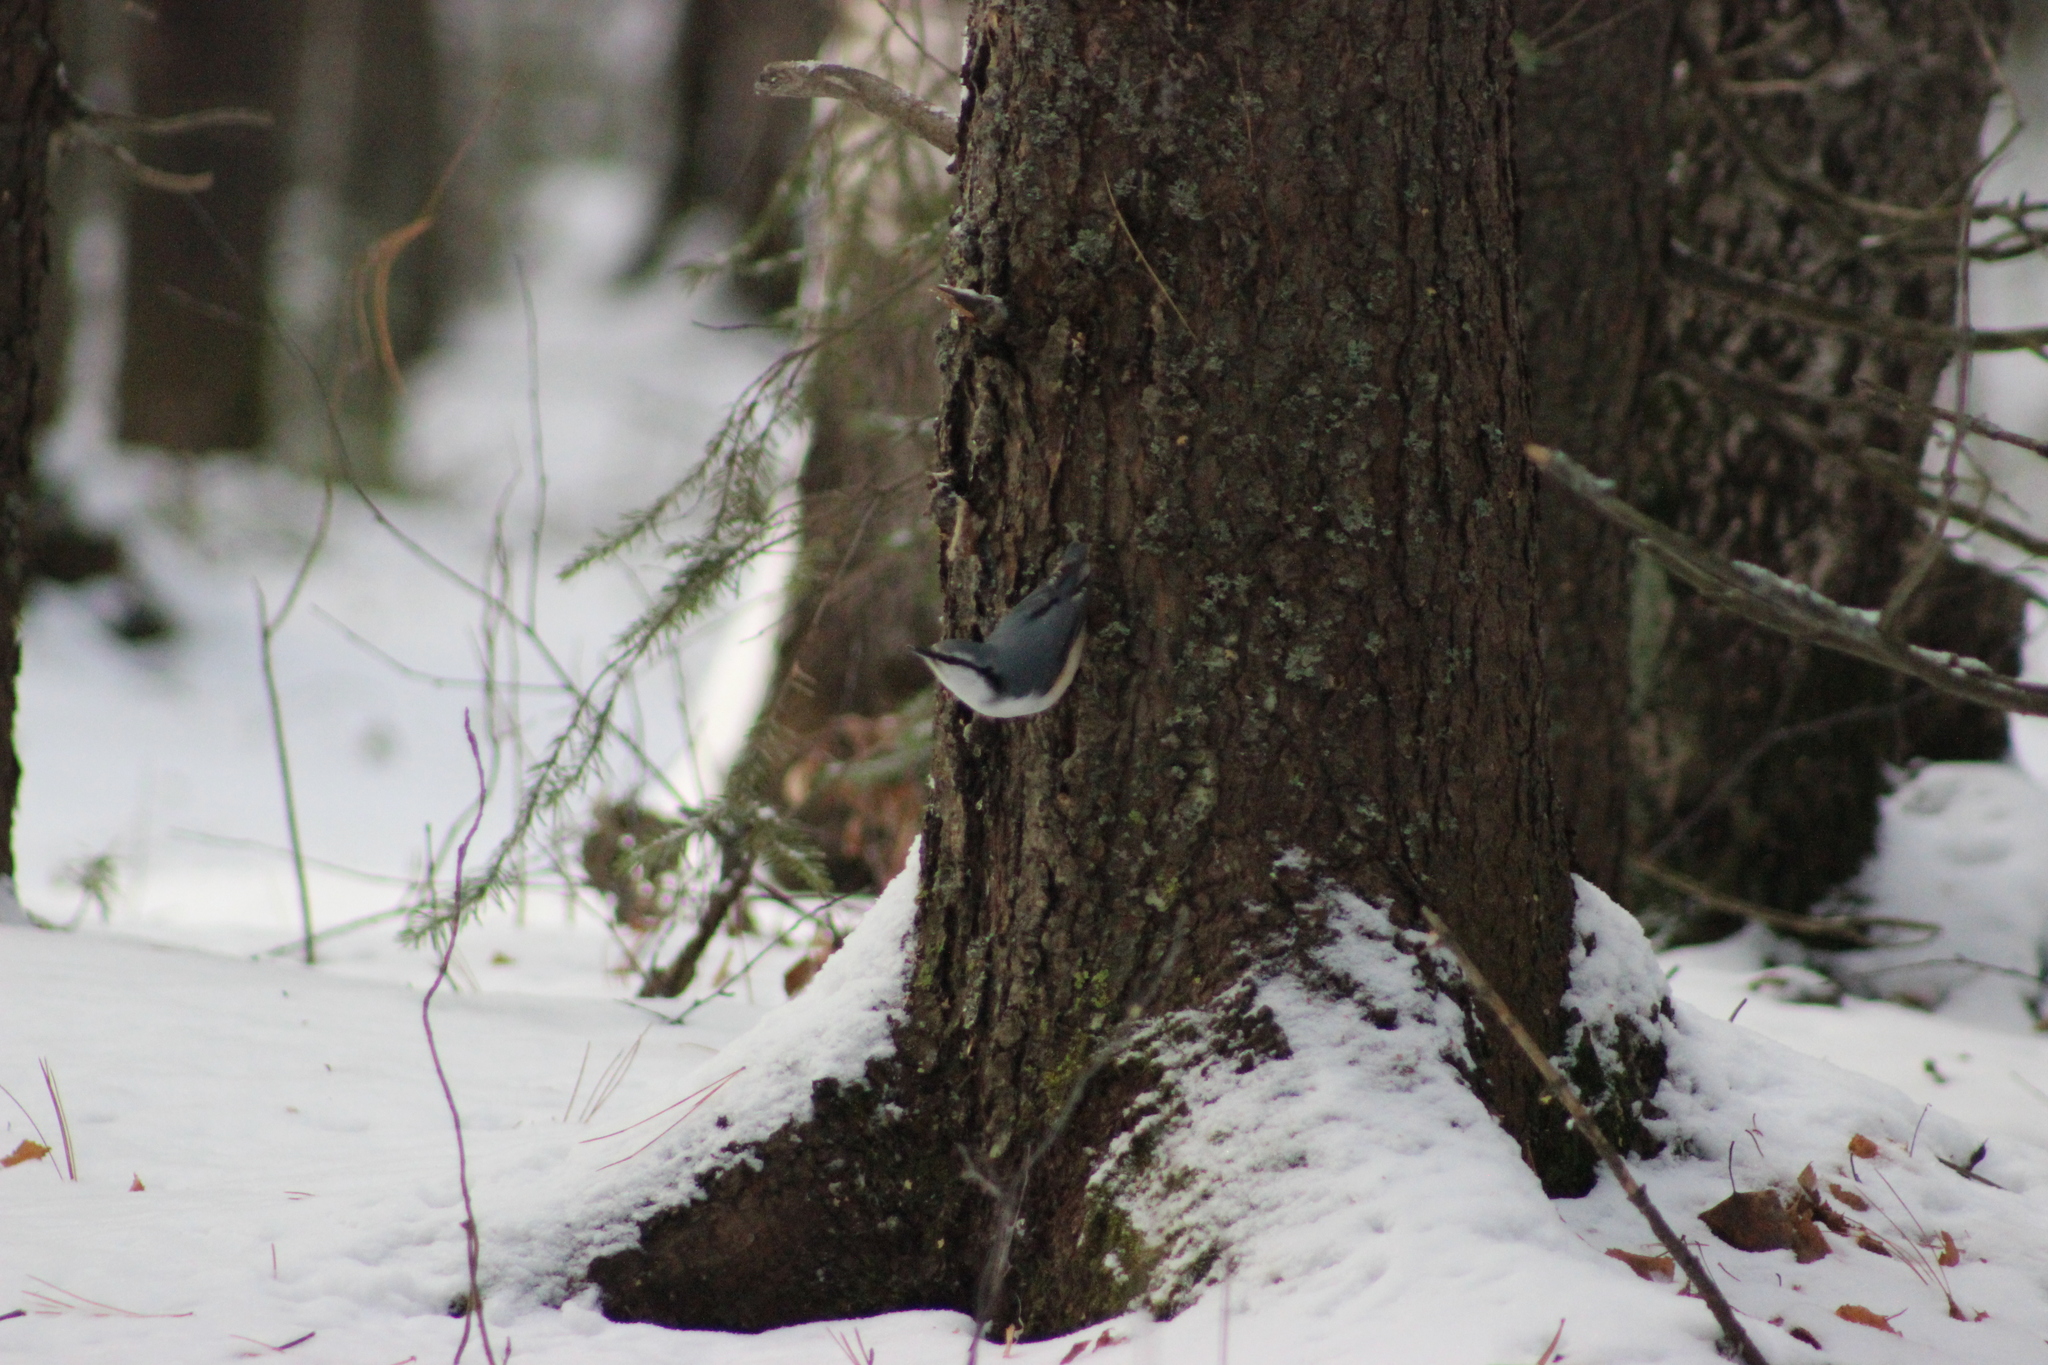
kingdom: Animalia
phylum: Chordata
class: Aves
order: Passeriformes
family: Sittidae
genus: Sitta
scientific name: Sitta europaea
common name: Eurasian nuthatch
